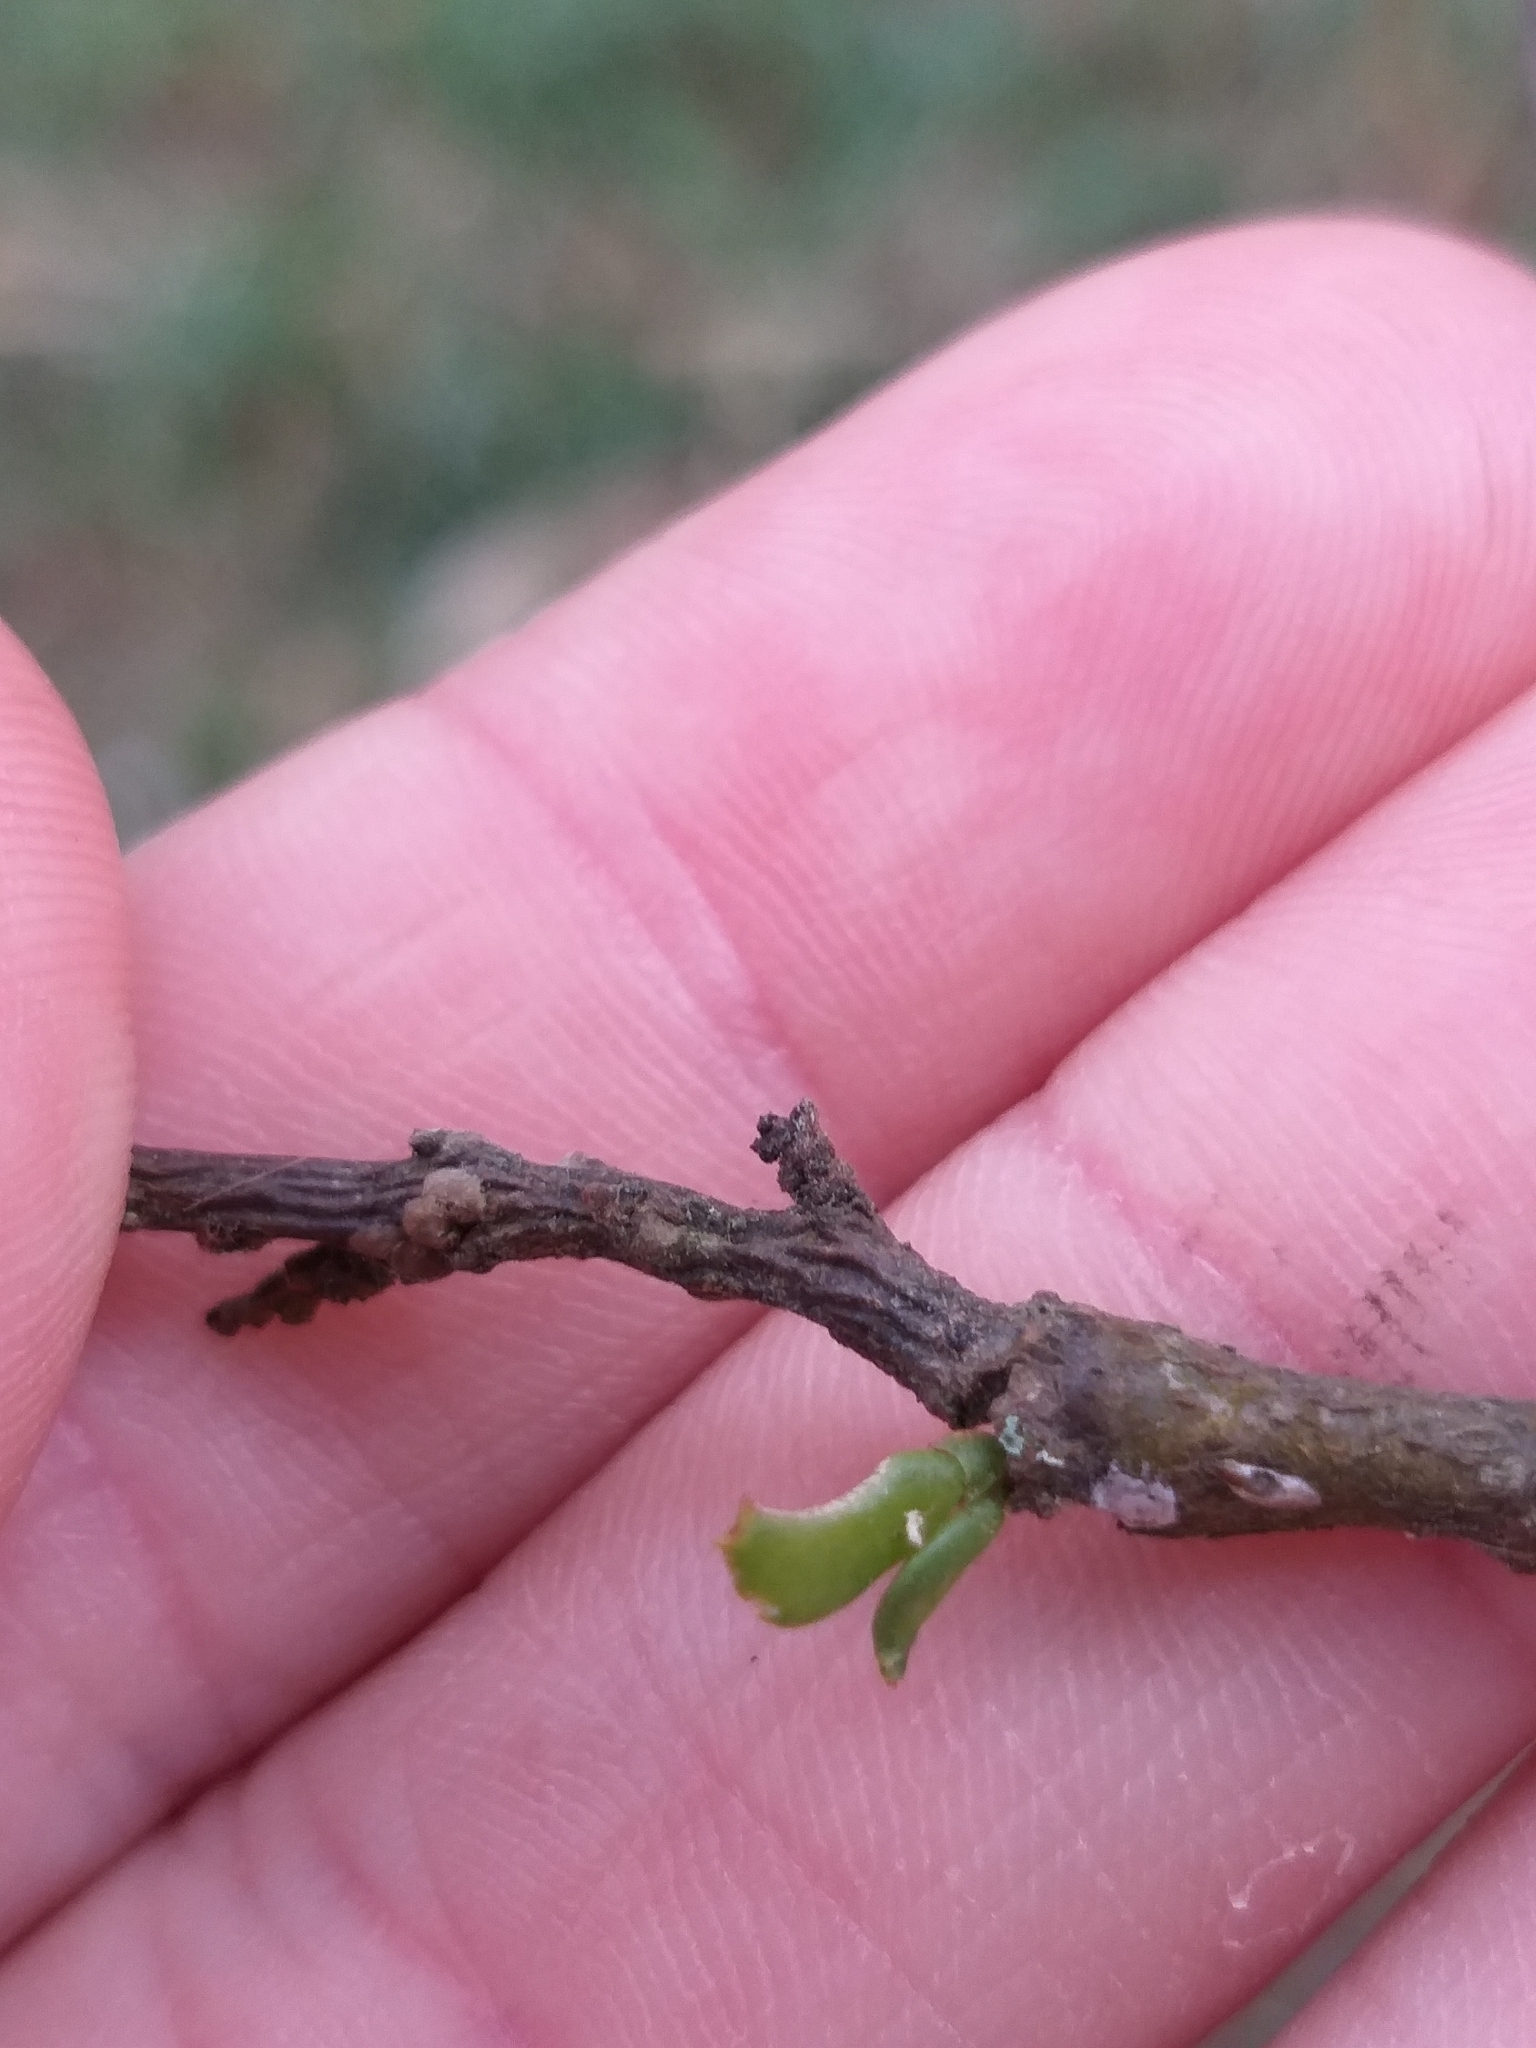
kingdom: Plantae
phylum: Tracheophyta
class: Magnoliopsida
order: Santalales
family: Viscaceae
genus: Korthalsella
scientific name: Korthalsella lindsayi
